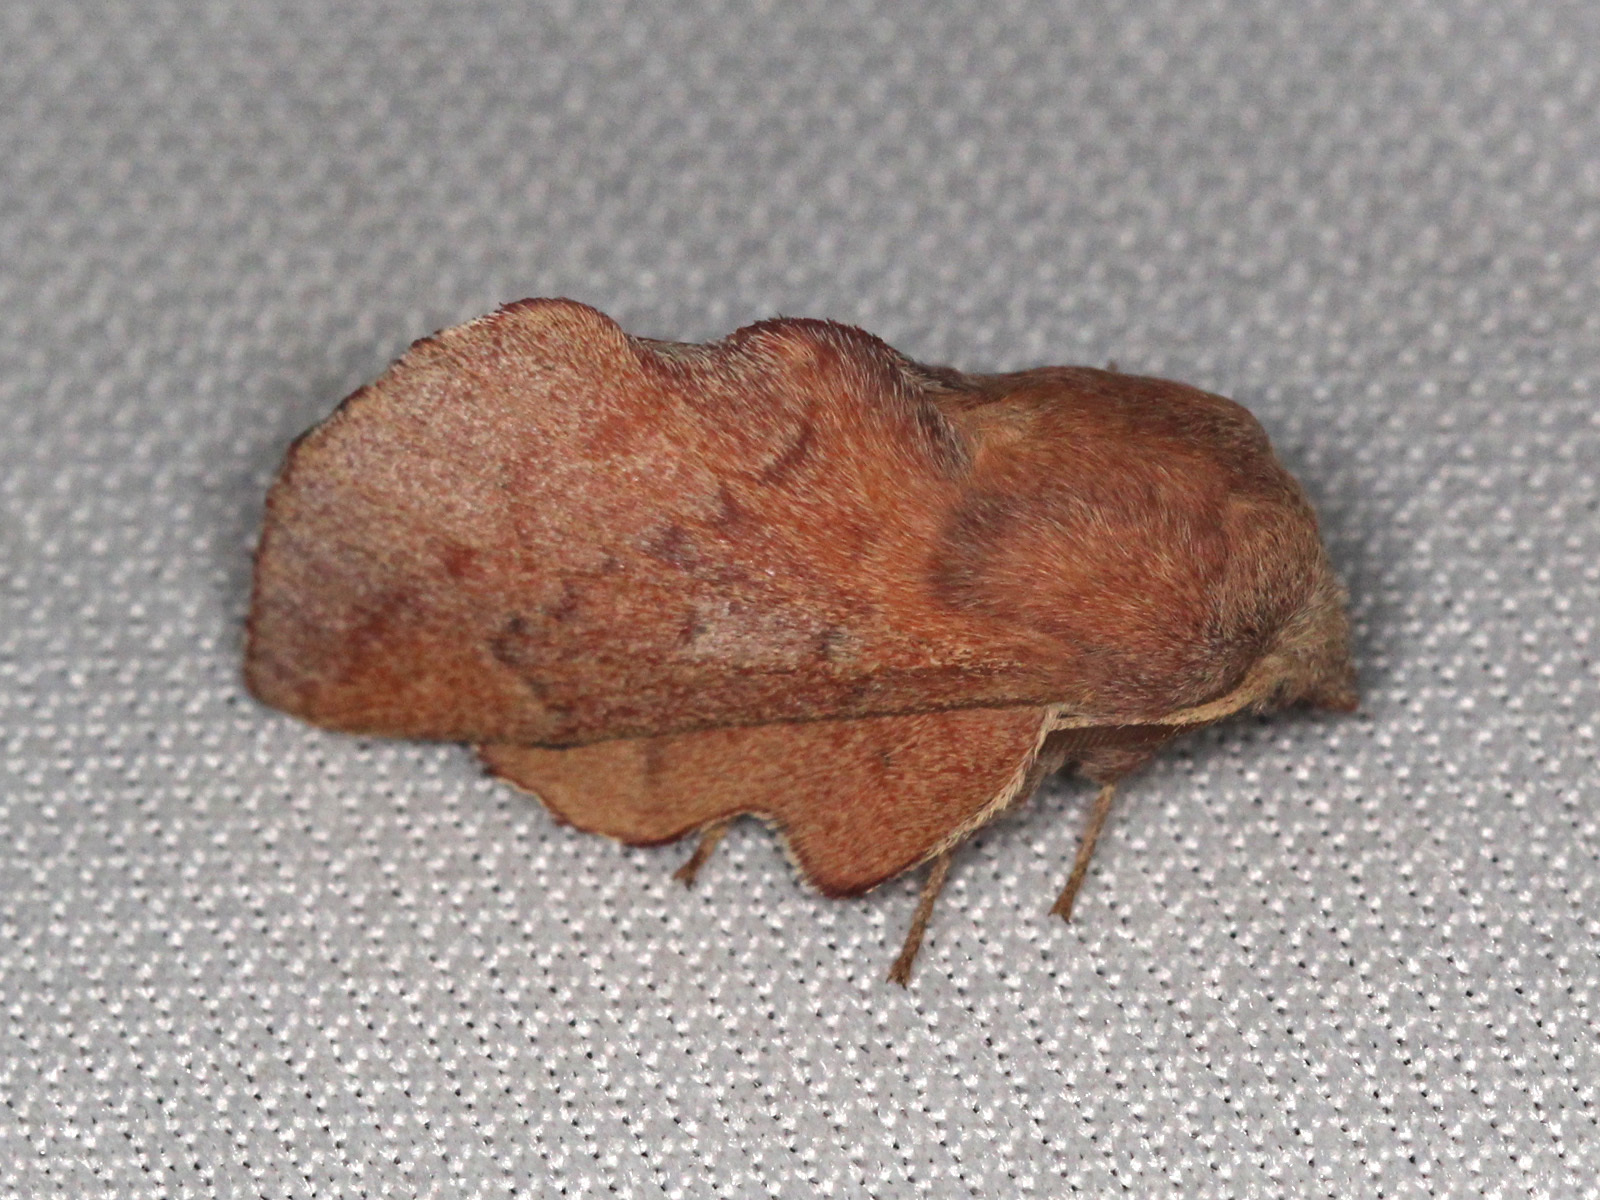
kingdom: Animalia
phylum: Arthropoda
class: Insecta
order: Lepidoptera
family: Lasiocampidae
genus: Phyllodesma
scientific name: Phyllodesma americana
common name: American lappet moth
